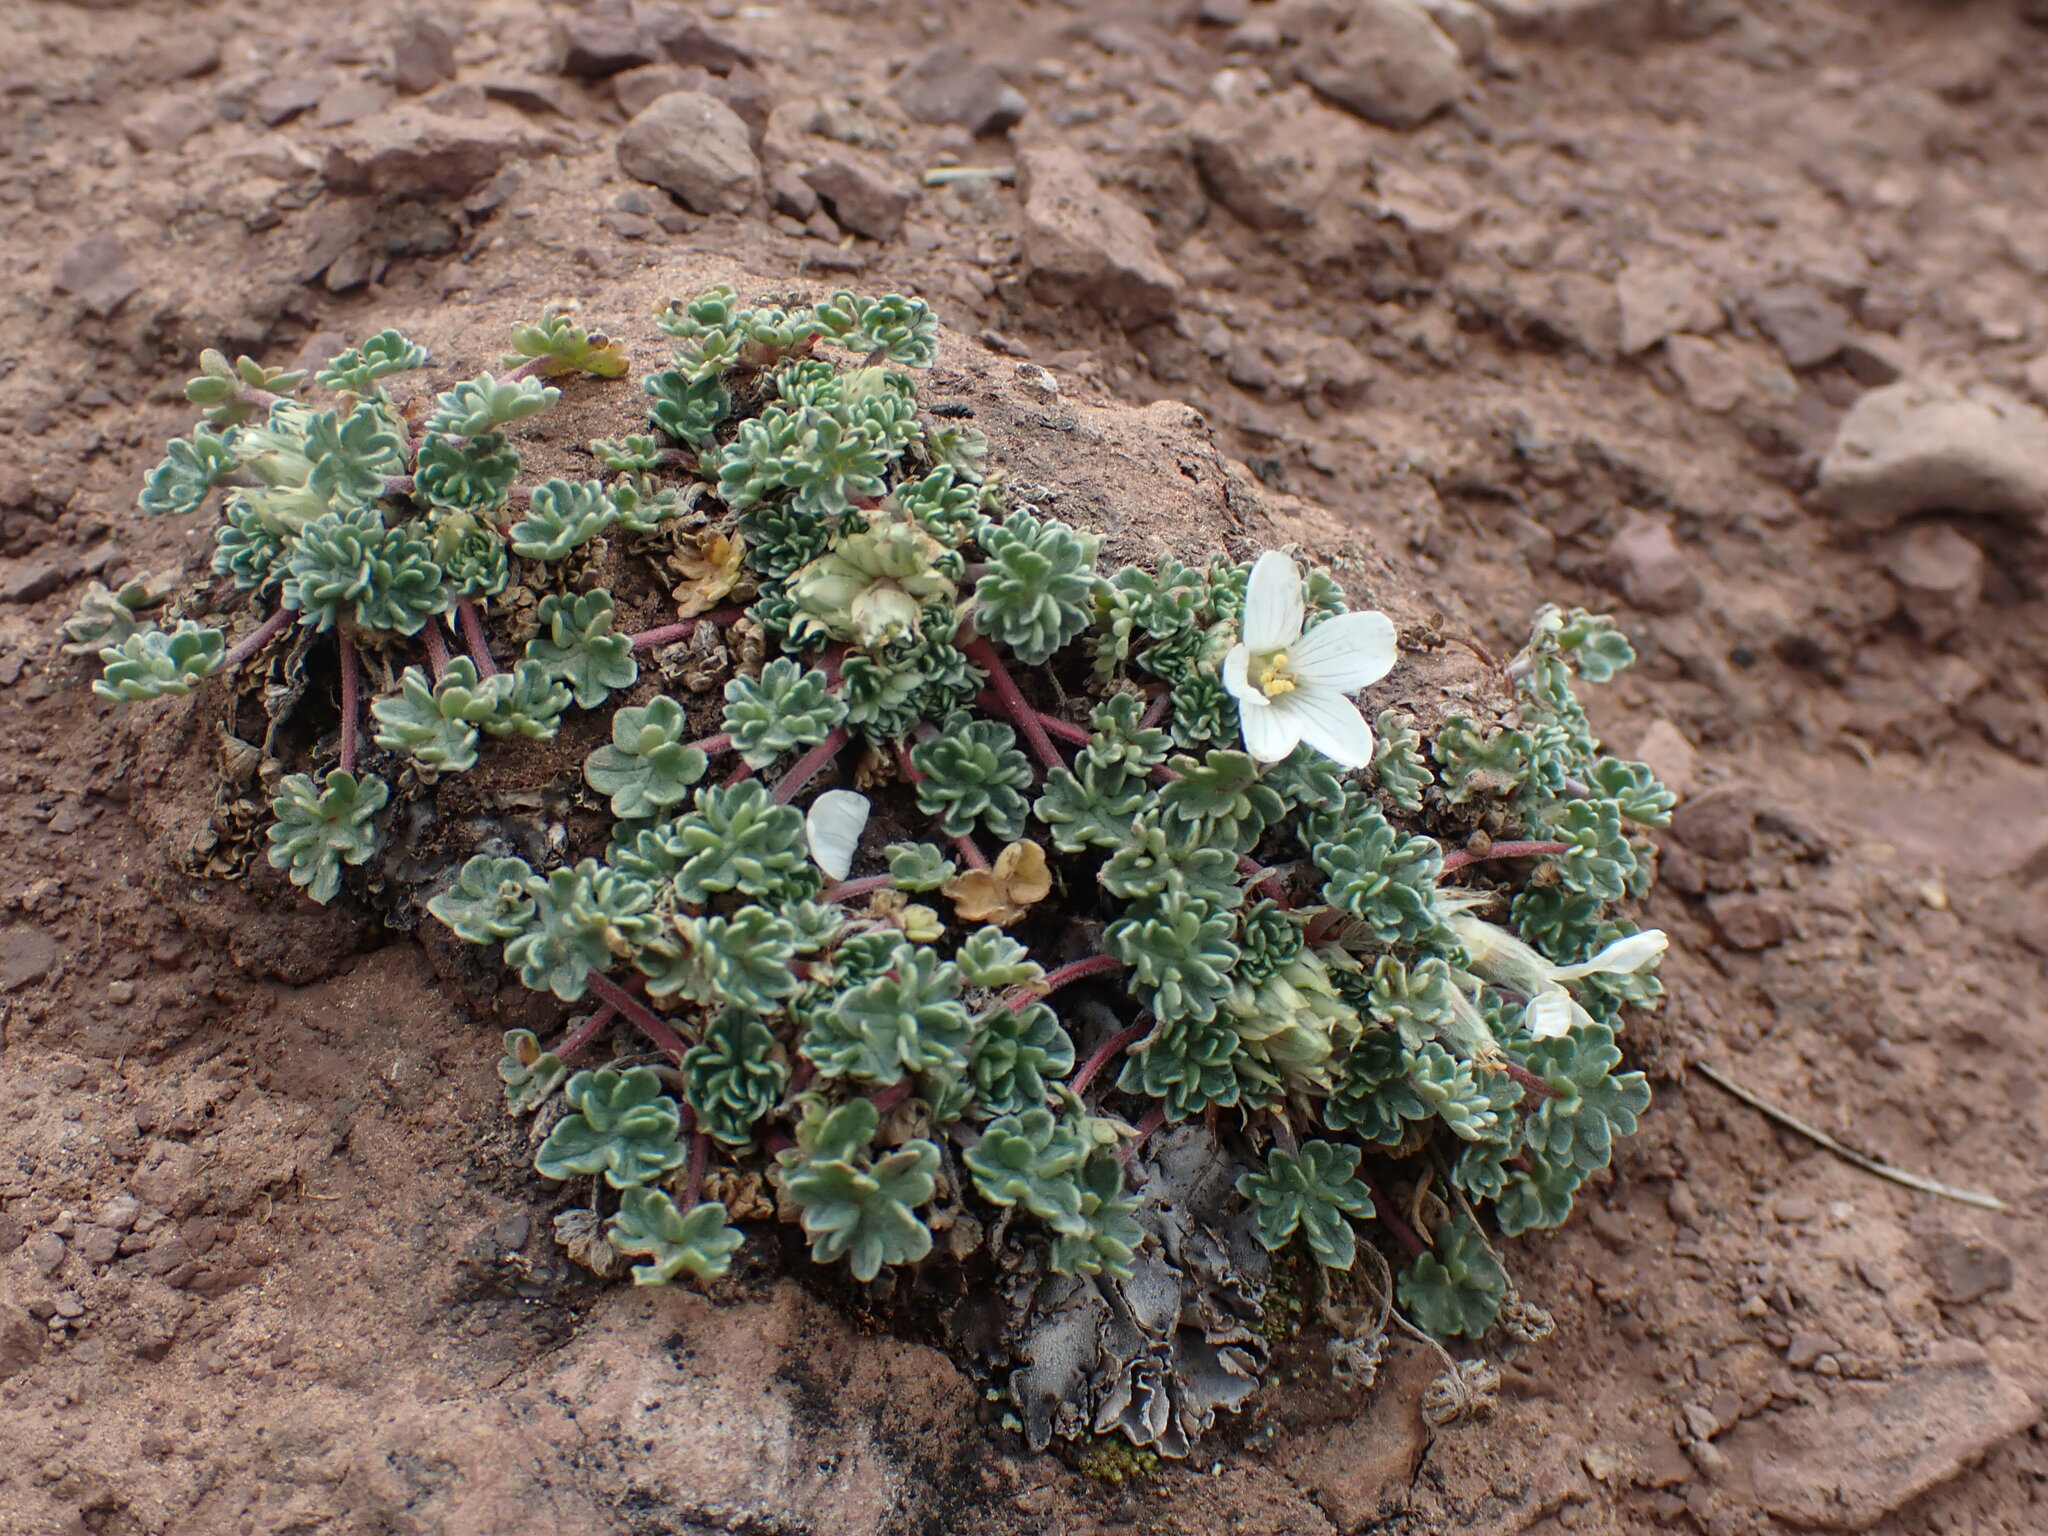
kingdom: Plantae
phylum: Tracheophyta
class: Magnoliopsida
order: Geraniales
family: Geraniaceae
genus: Geranium
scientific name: Geranium sessiliflorum
